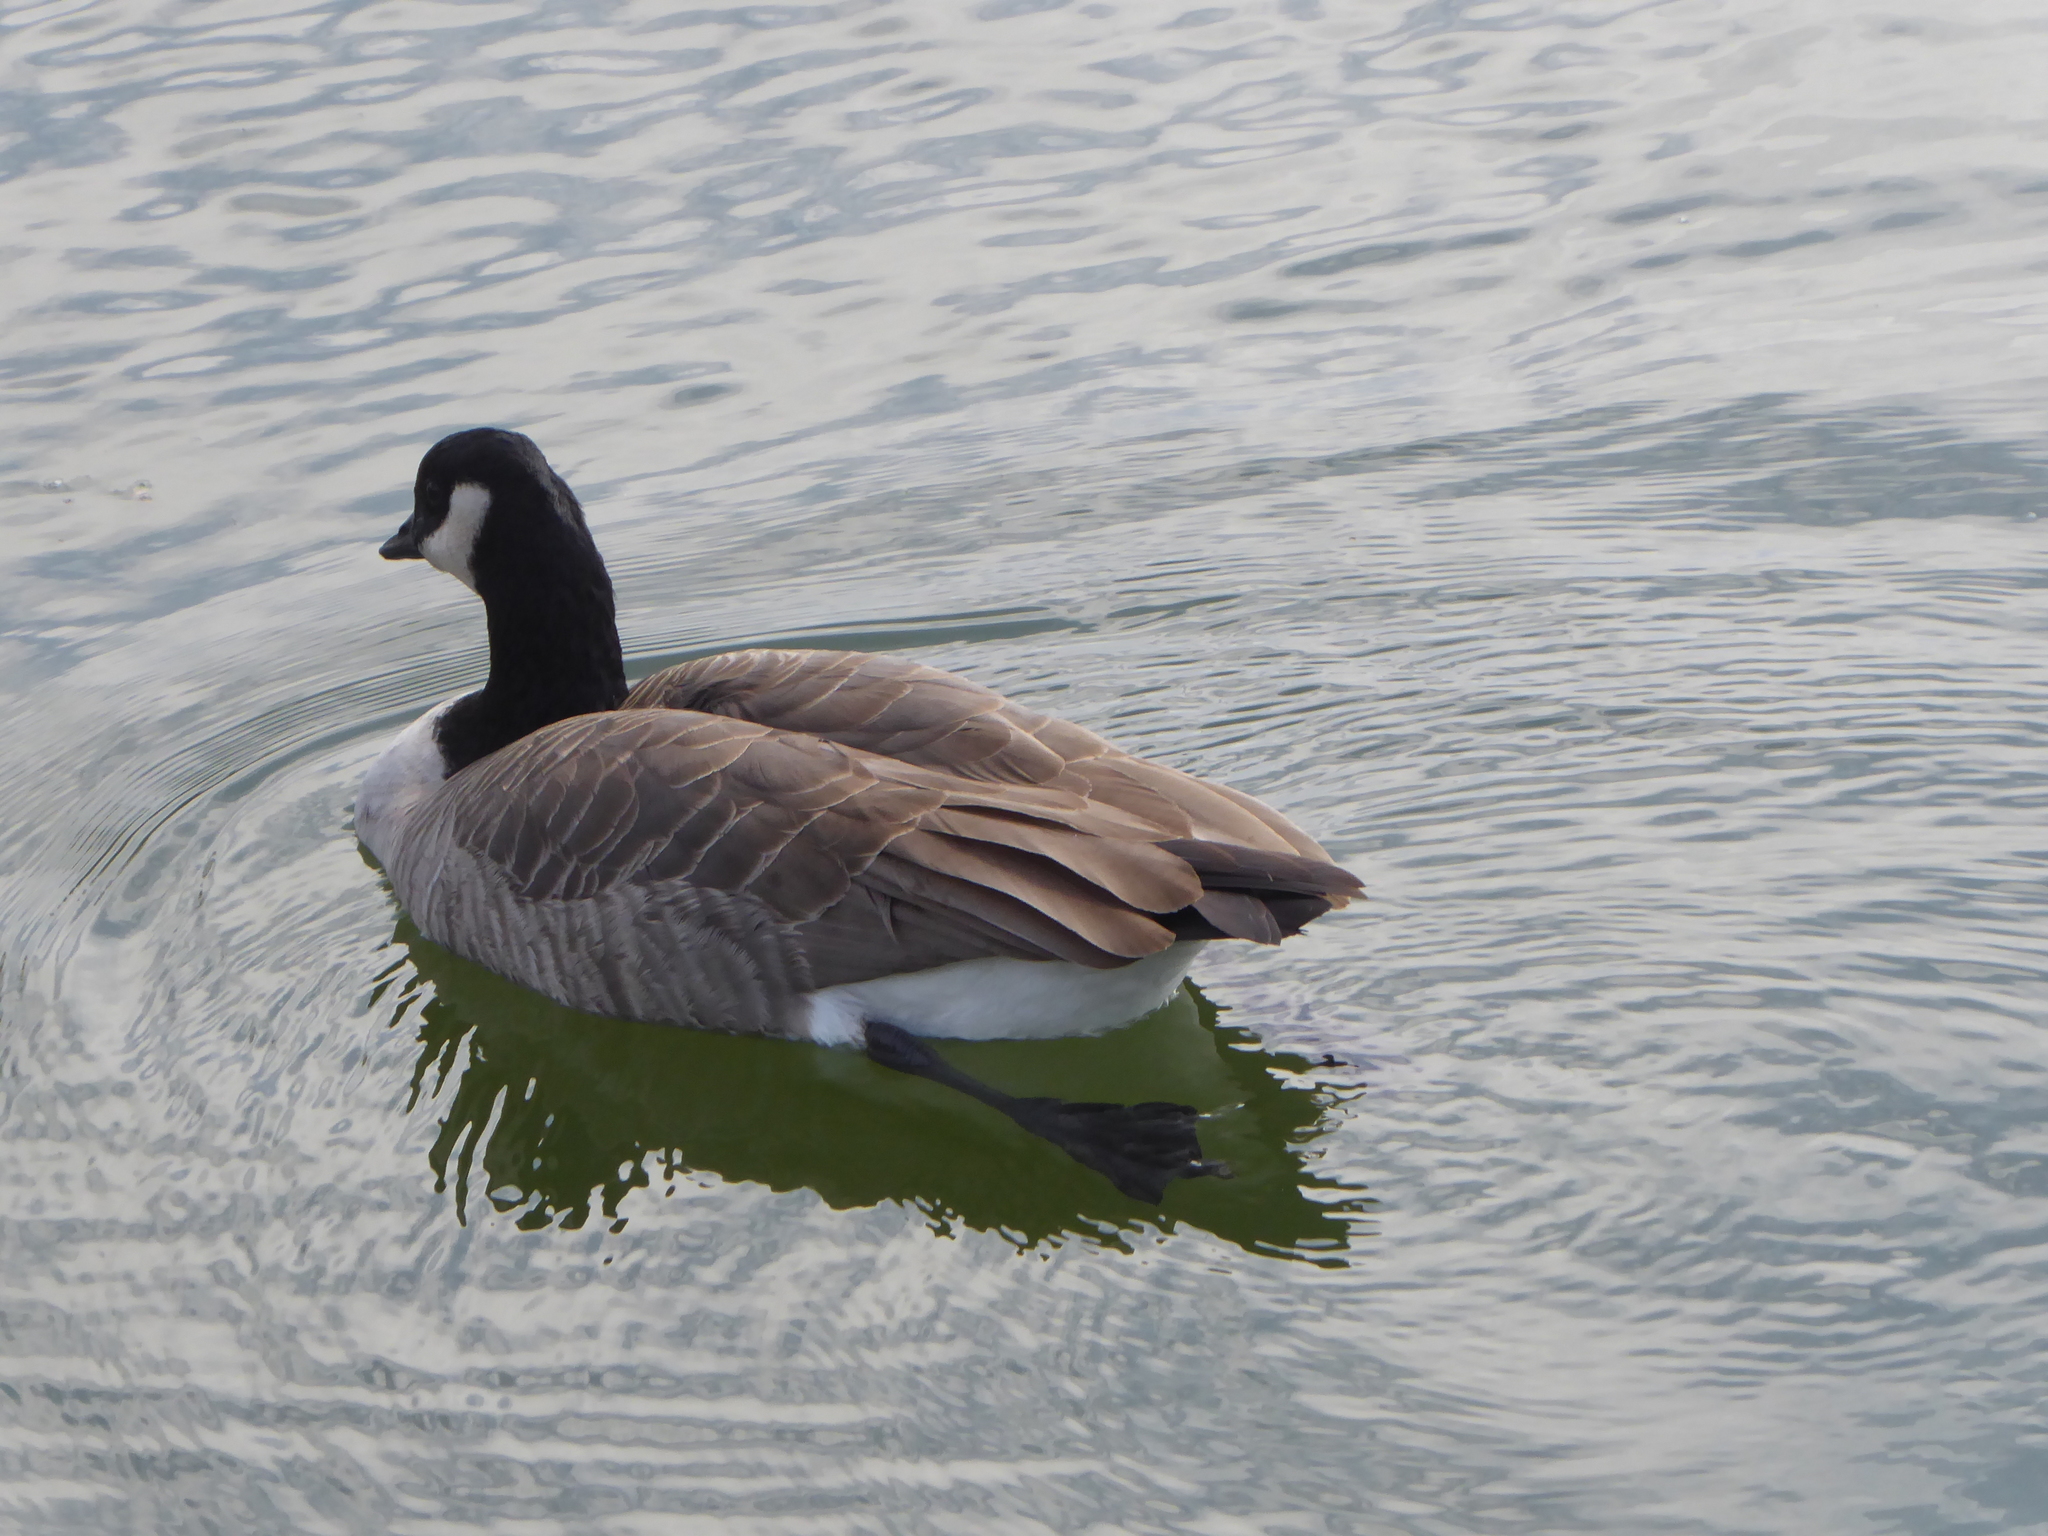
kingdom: Animalia
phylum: Chordata
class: Aves
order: Anseriformes
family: Anatidae
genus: Branta
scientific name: Branta canadensis
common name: Canada goose
